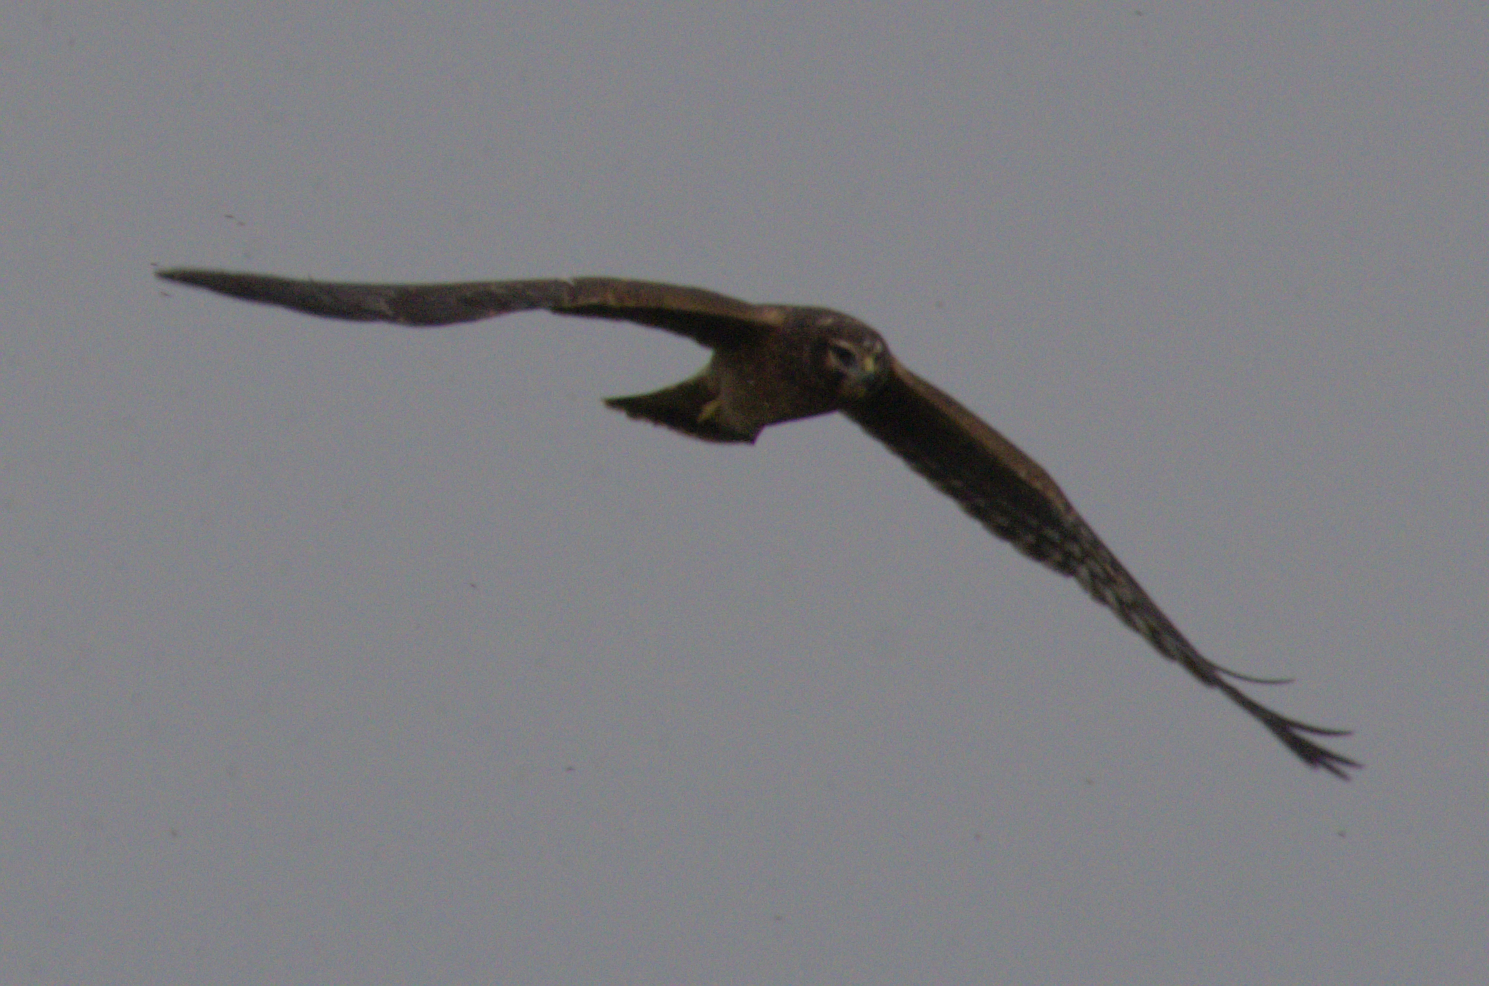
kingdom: Animalia
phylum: Chordata
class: Aves
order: Accipitriformes
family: Accipitridae
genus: Circus
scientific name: Circus cyaneus
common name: Hen harrier
